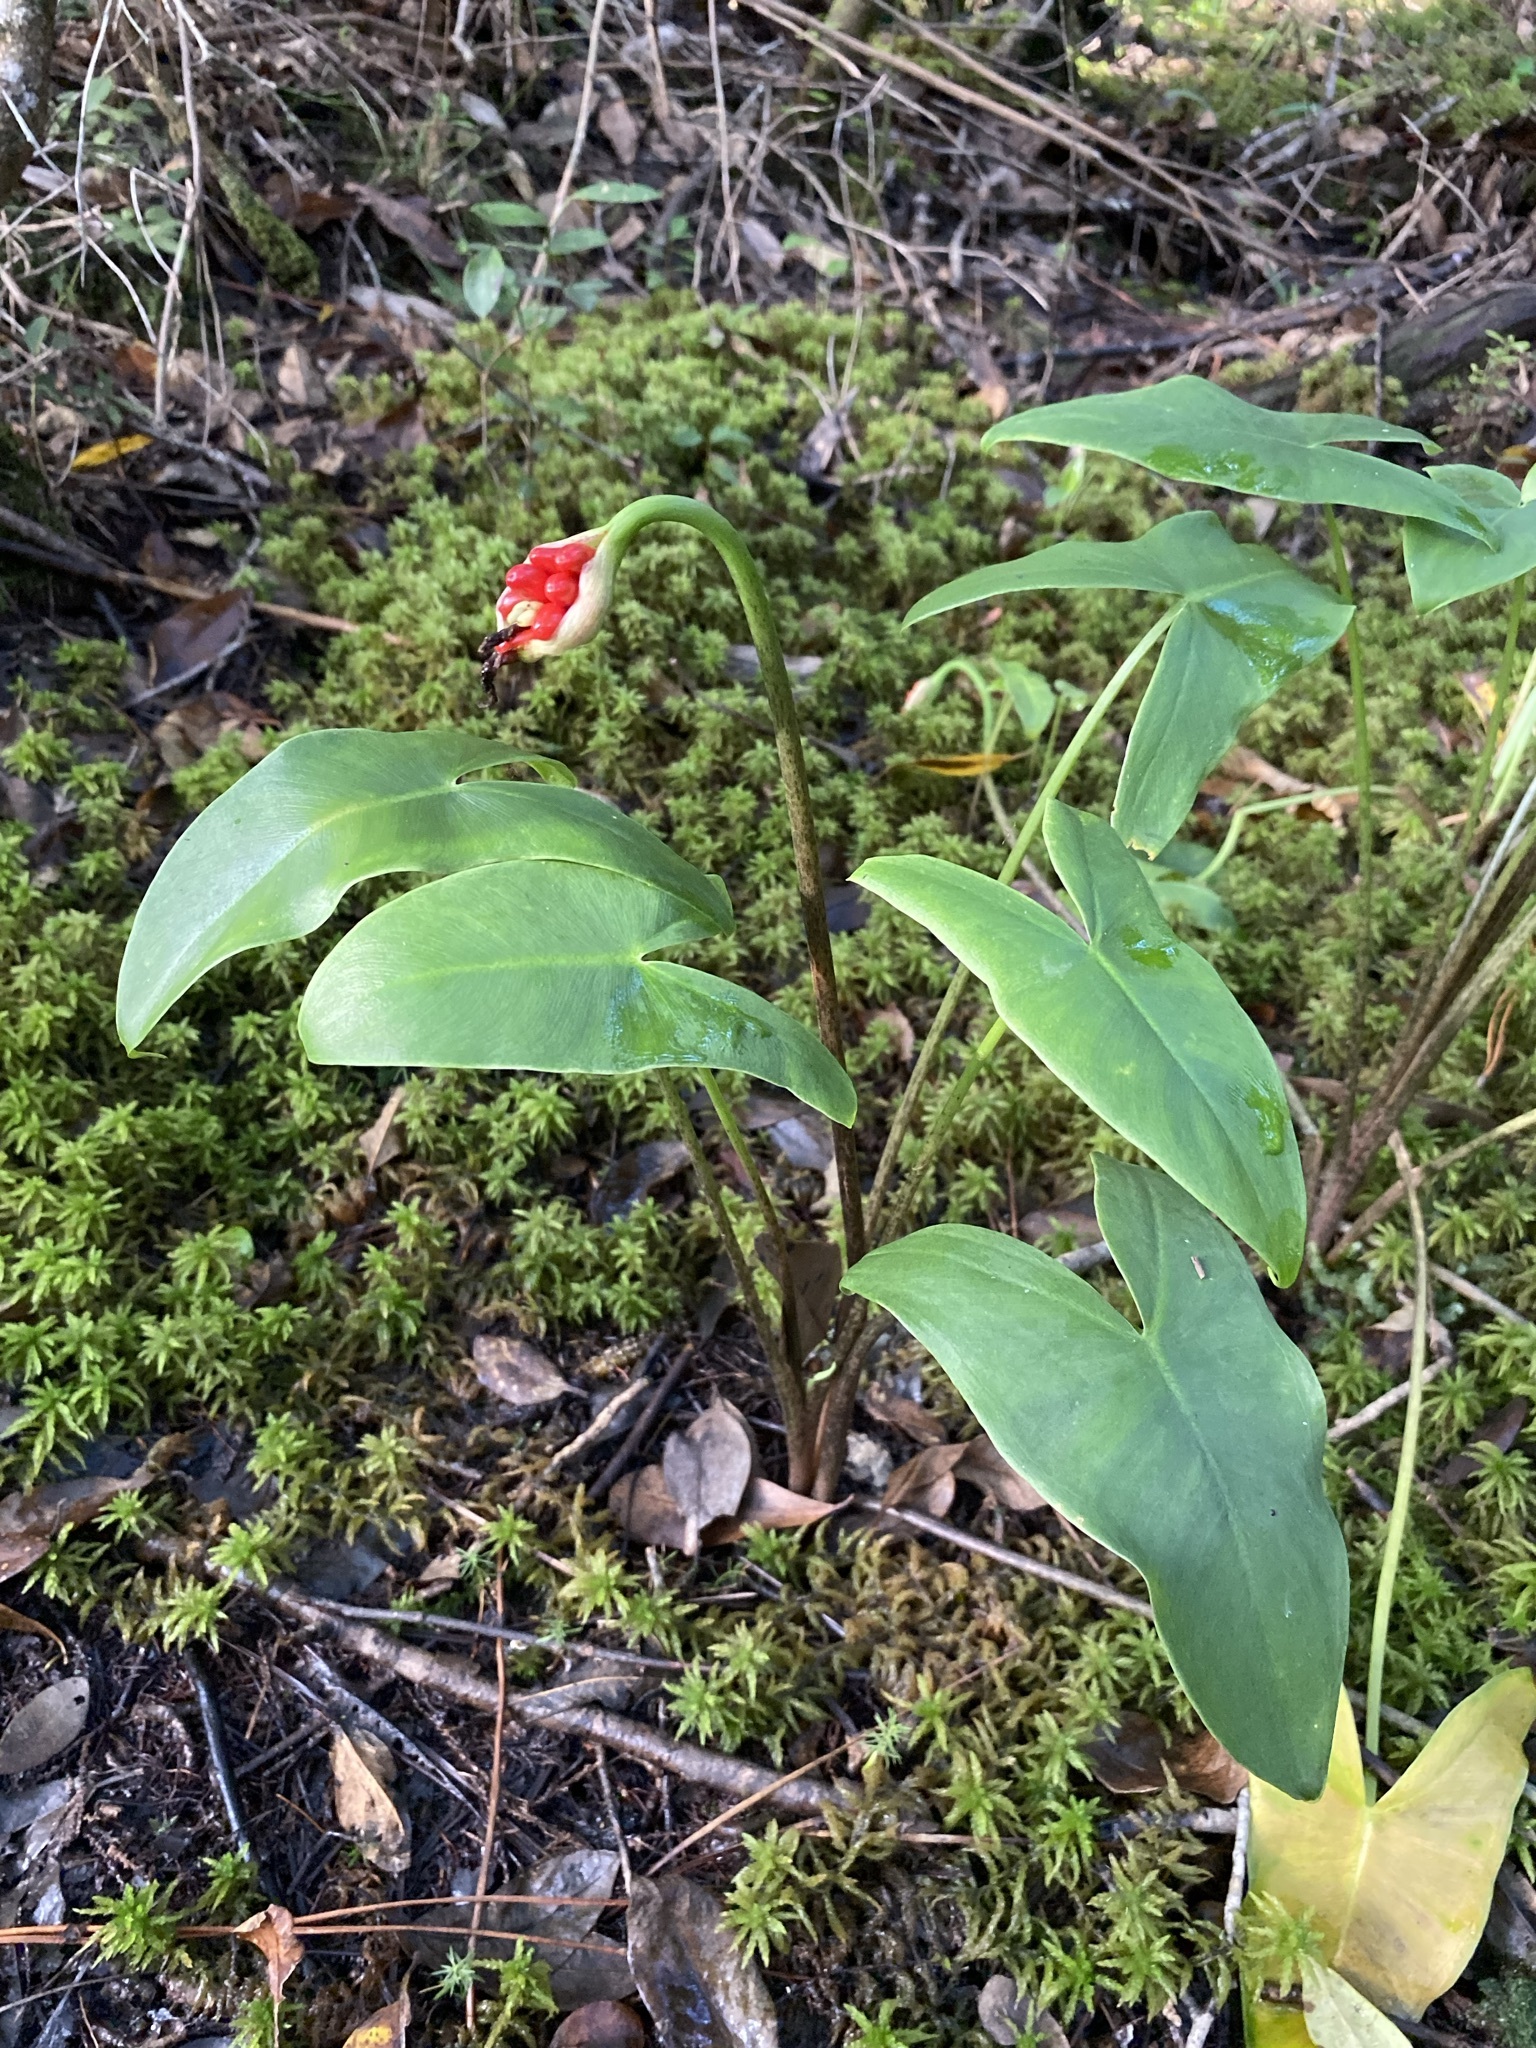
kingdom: Plantae
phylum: Tracheophyta
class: Liliopsida
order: Alismatales
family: Araceae
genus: Peltandra
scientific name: Peltandra sagittifolia
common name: White arrow arum
